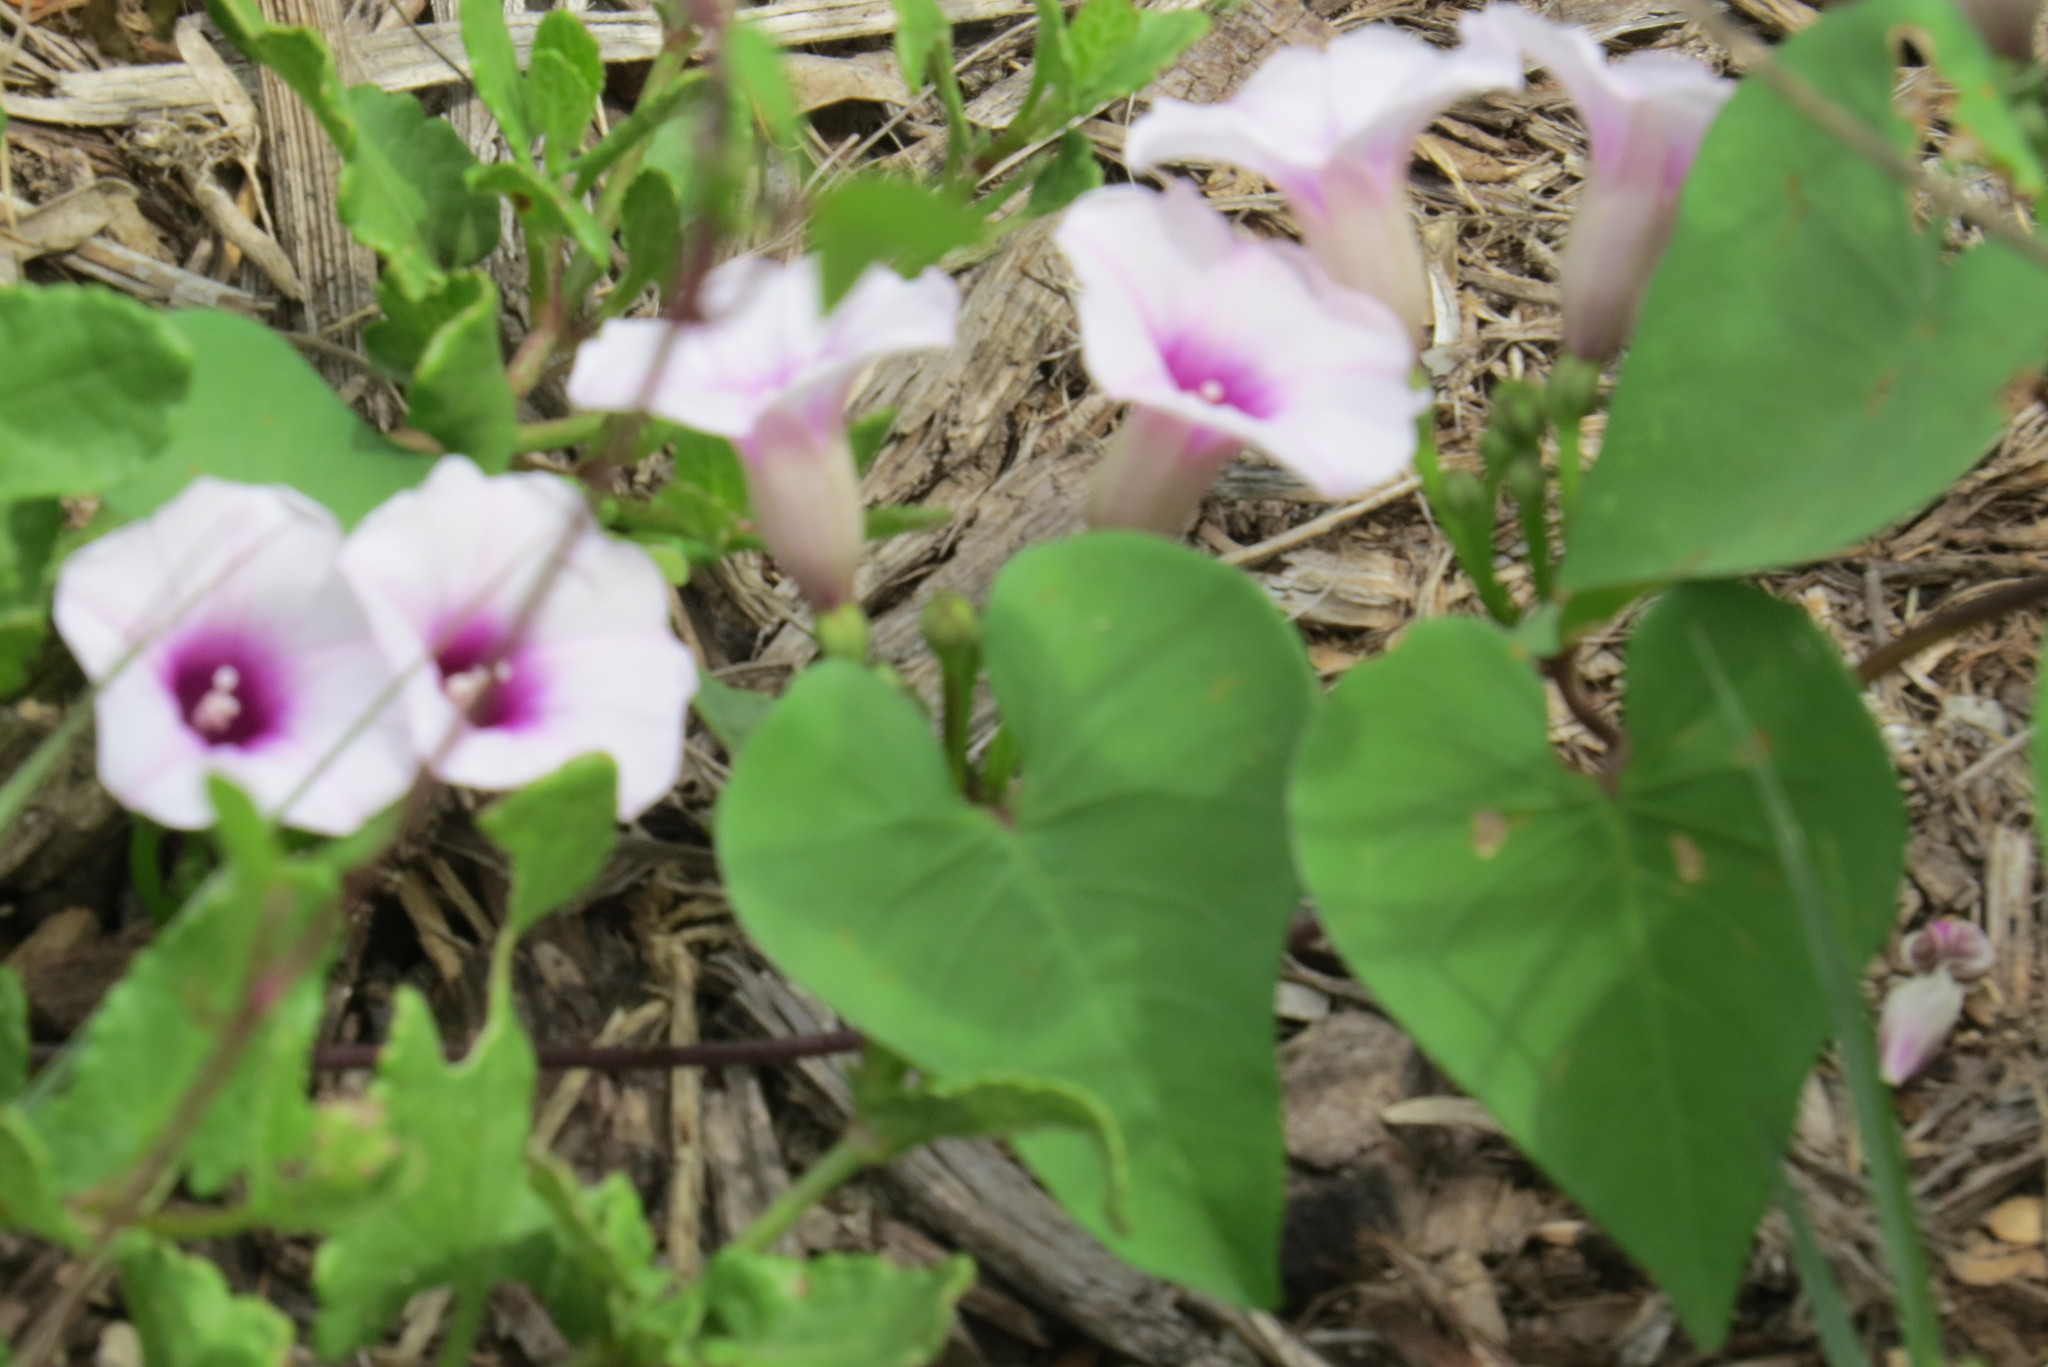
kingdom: Plantae
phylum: Tracheophyta
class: Magnoliopsida
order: Solanales
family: Convolvulaceae
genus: Ipomoea
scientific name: Ipomoea amnicola
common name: Redcenter morning-glory
